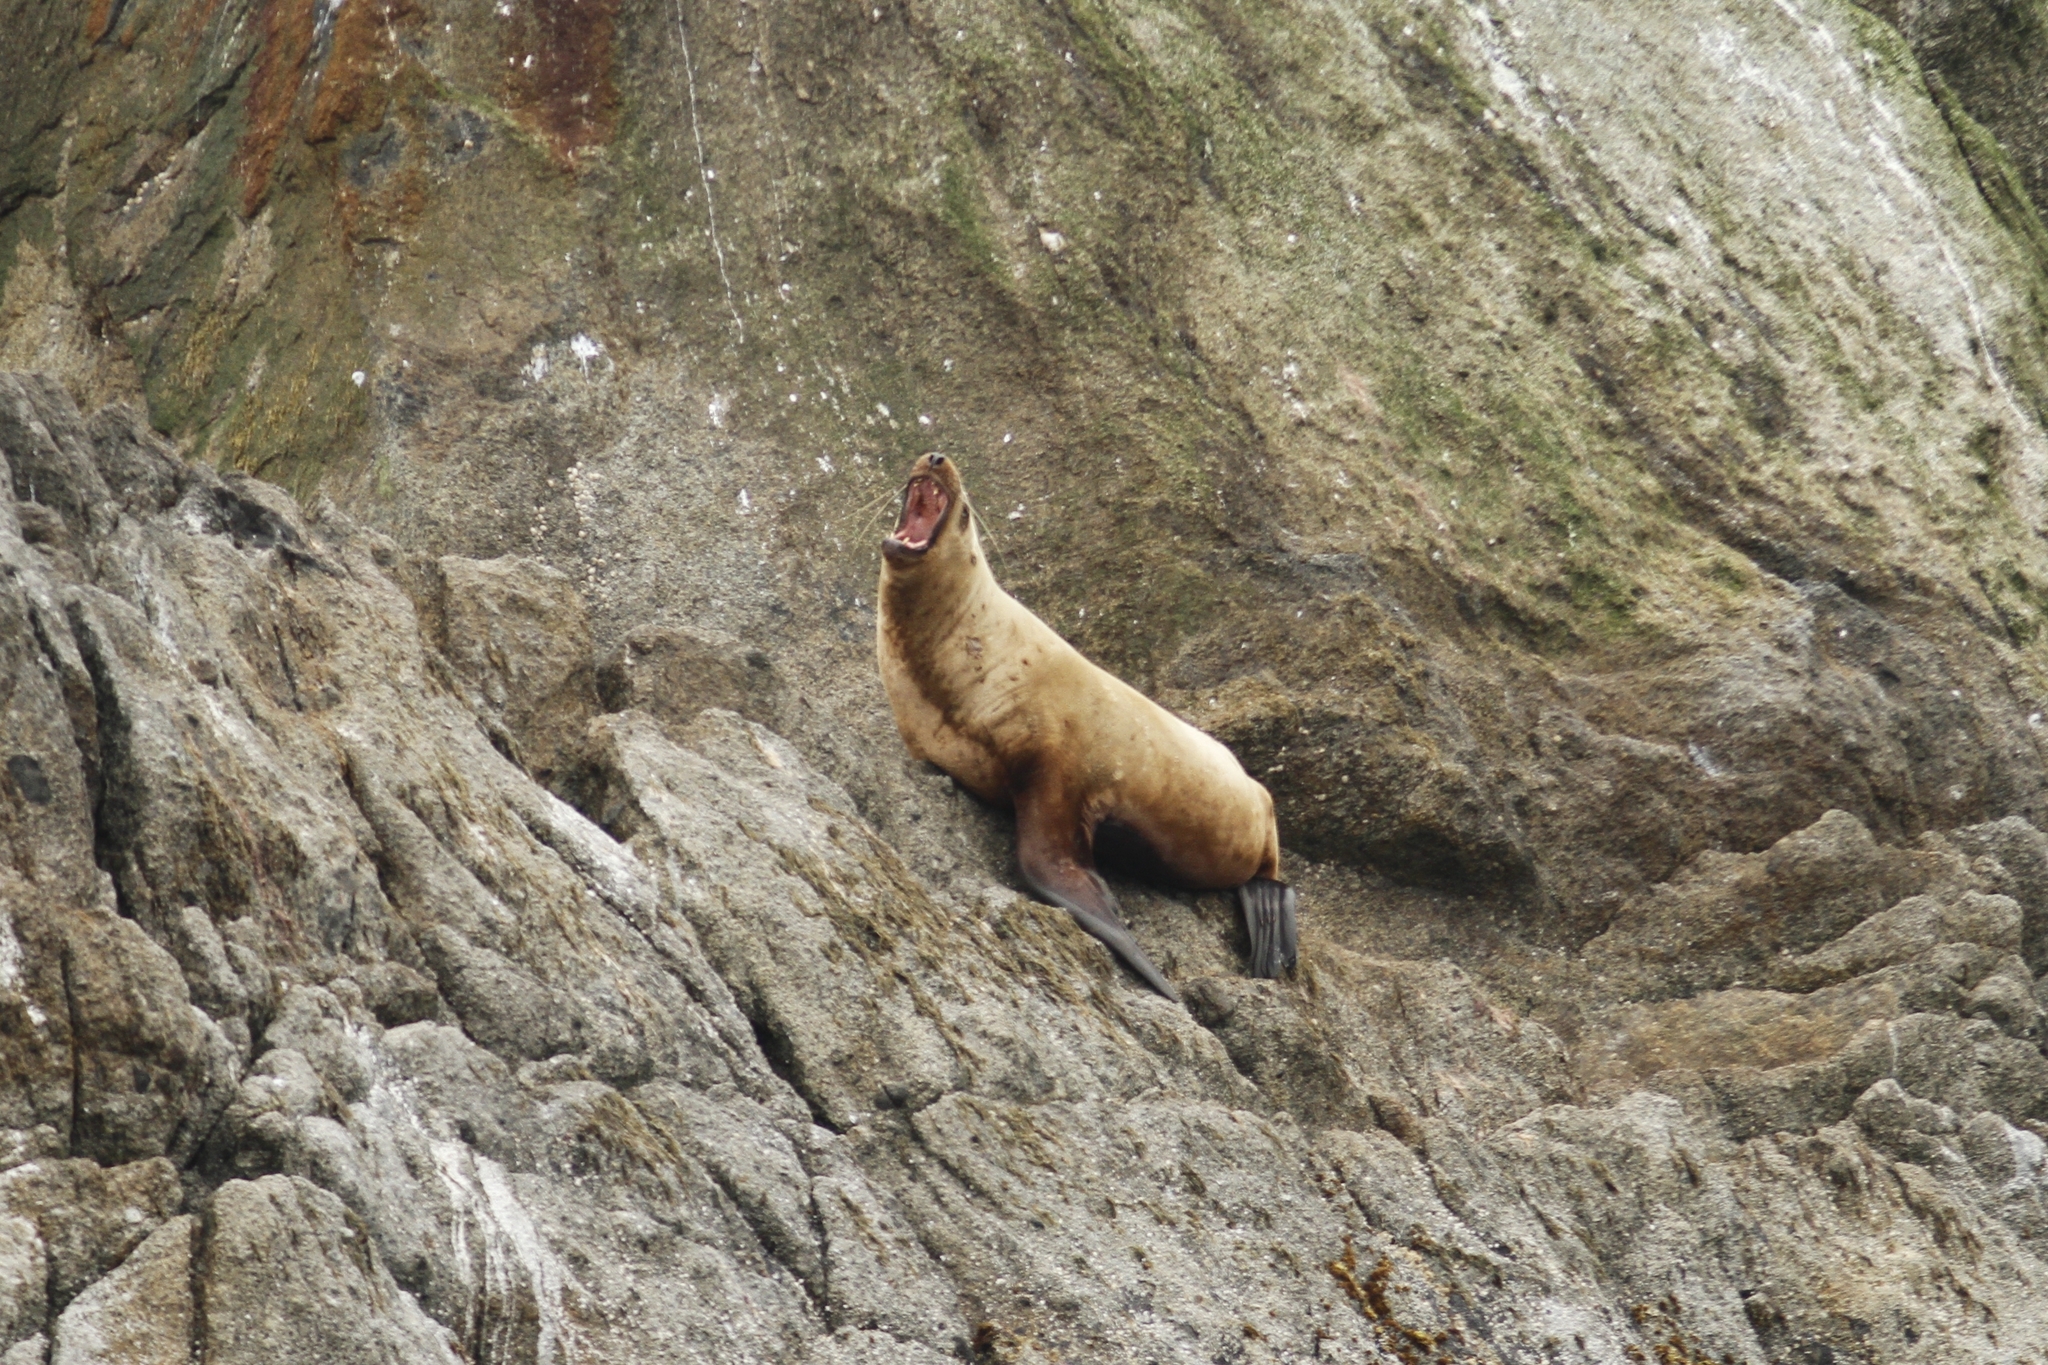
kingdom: Animalia
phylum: Chordata
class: Mammalia
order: Carnivora
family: Otariidae
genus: Eumetopias
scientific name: Eumetopias jubatus
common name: Steller sea lion
